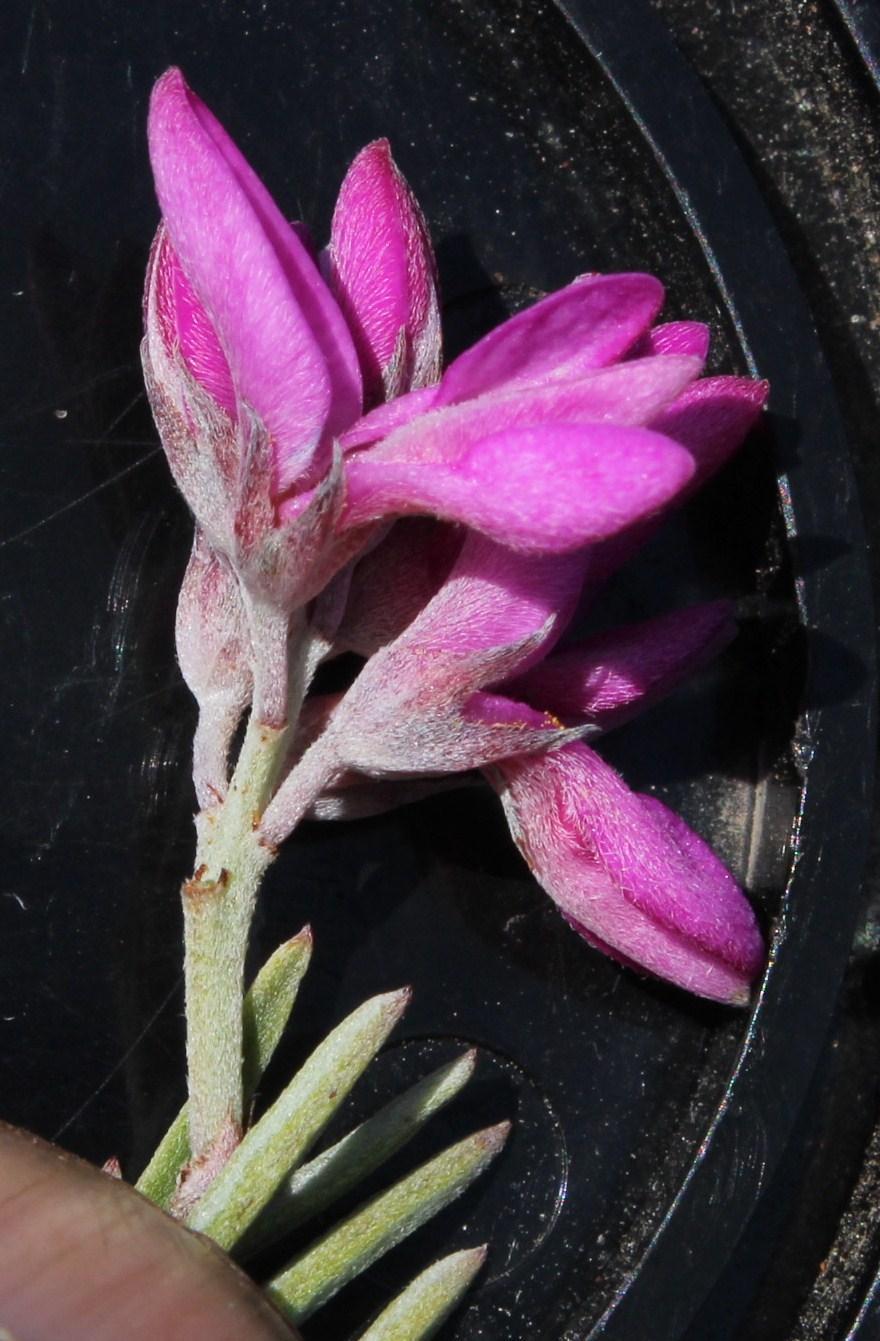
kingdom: Plantae
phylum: Tracheophyta
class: Magnoliopsida
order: Fabales
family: Fabaceae
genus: Indigofera
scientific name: Indigofera
